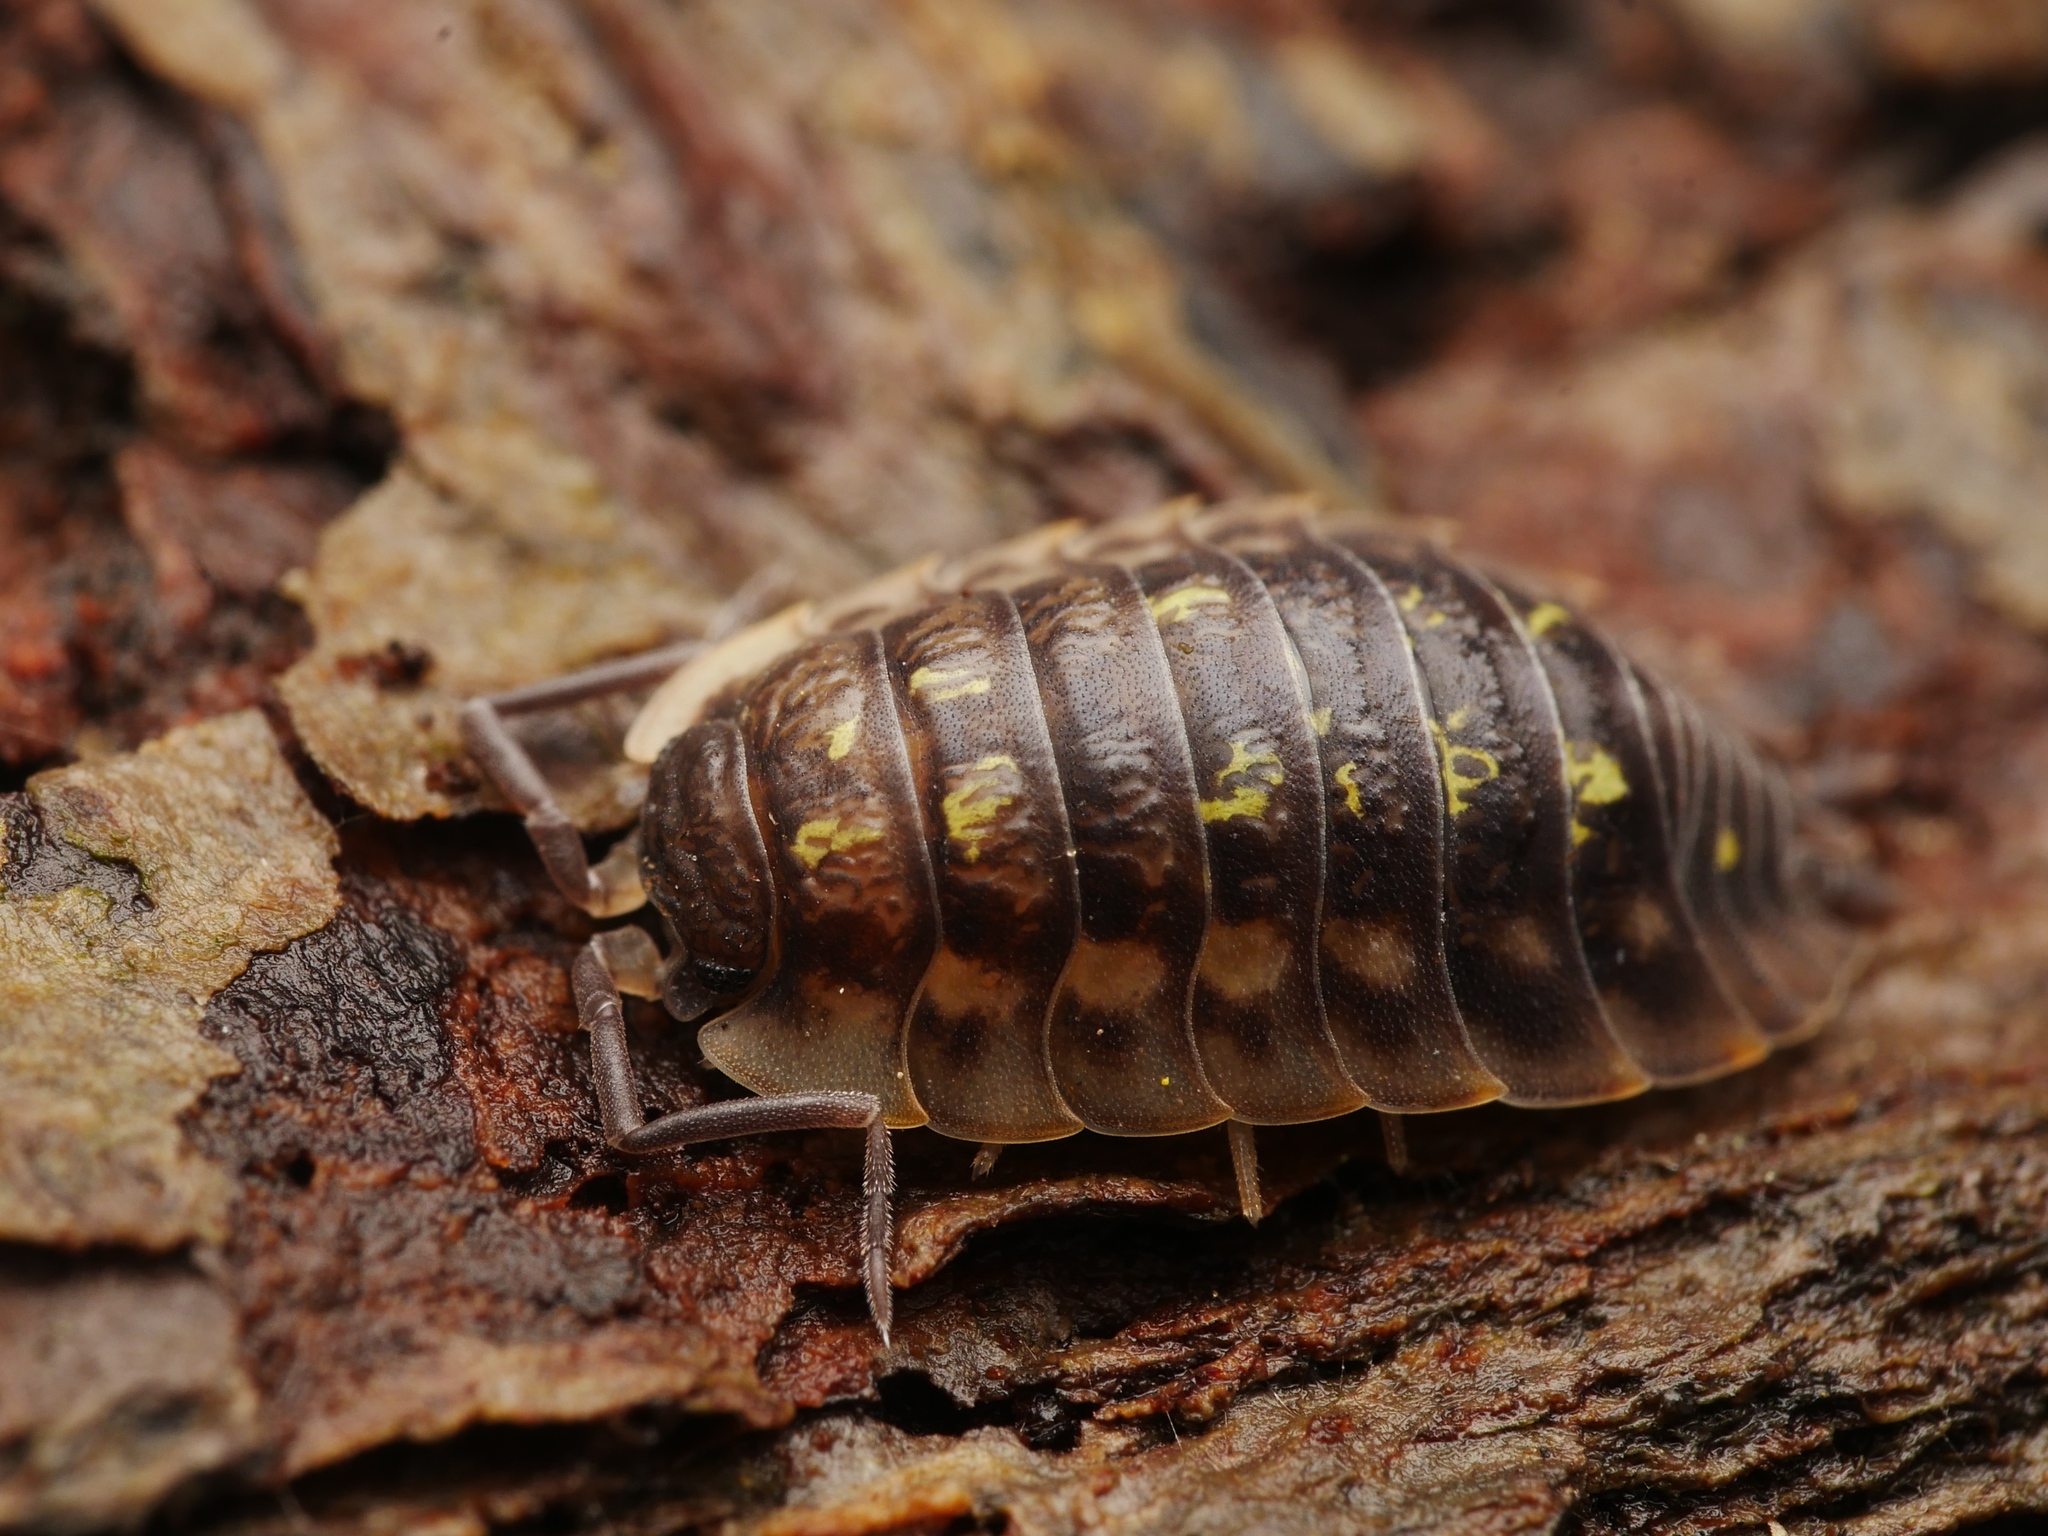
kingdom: Animalia
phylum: Arthropoda
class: Malacostraca
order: Isopoda
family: Oniscidae
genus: Oniscus
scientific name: Oniscus asellus
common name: Common shiny woodlouse
